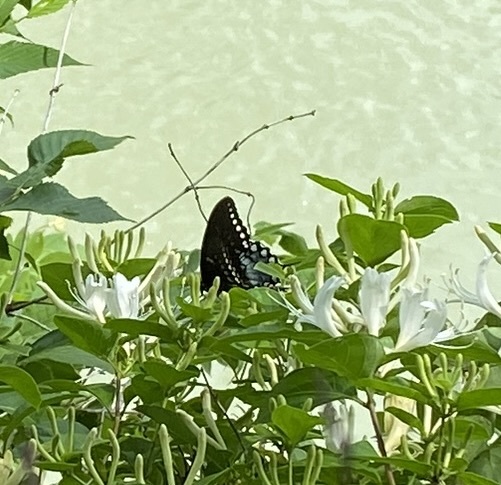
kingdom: Animalia
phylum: Arthropoda
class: Insecta
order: Lepidoptera
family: Papilionidae
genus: Papilio
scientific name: Papilio troilus
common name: Spicebush swallowtail
